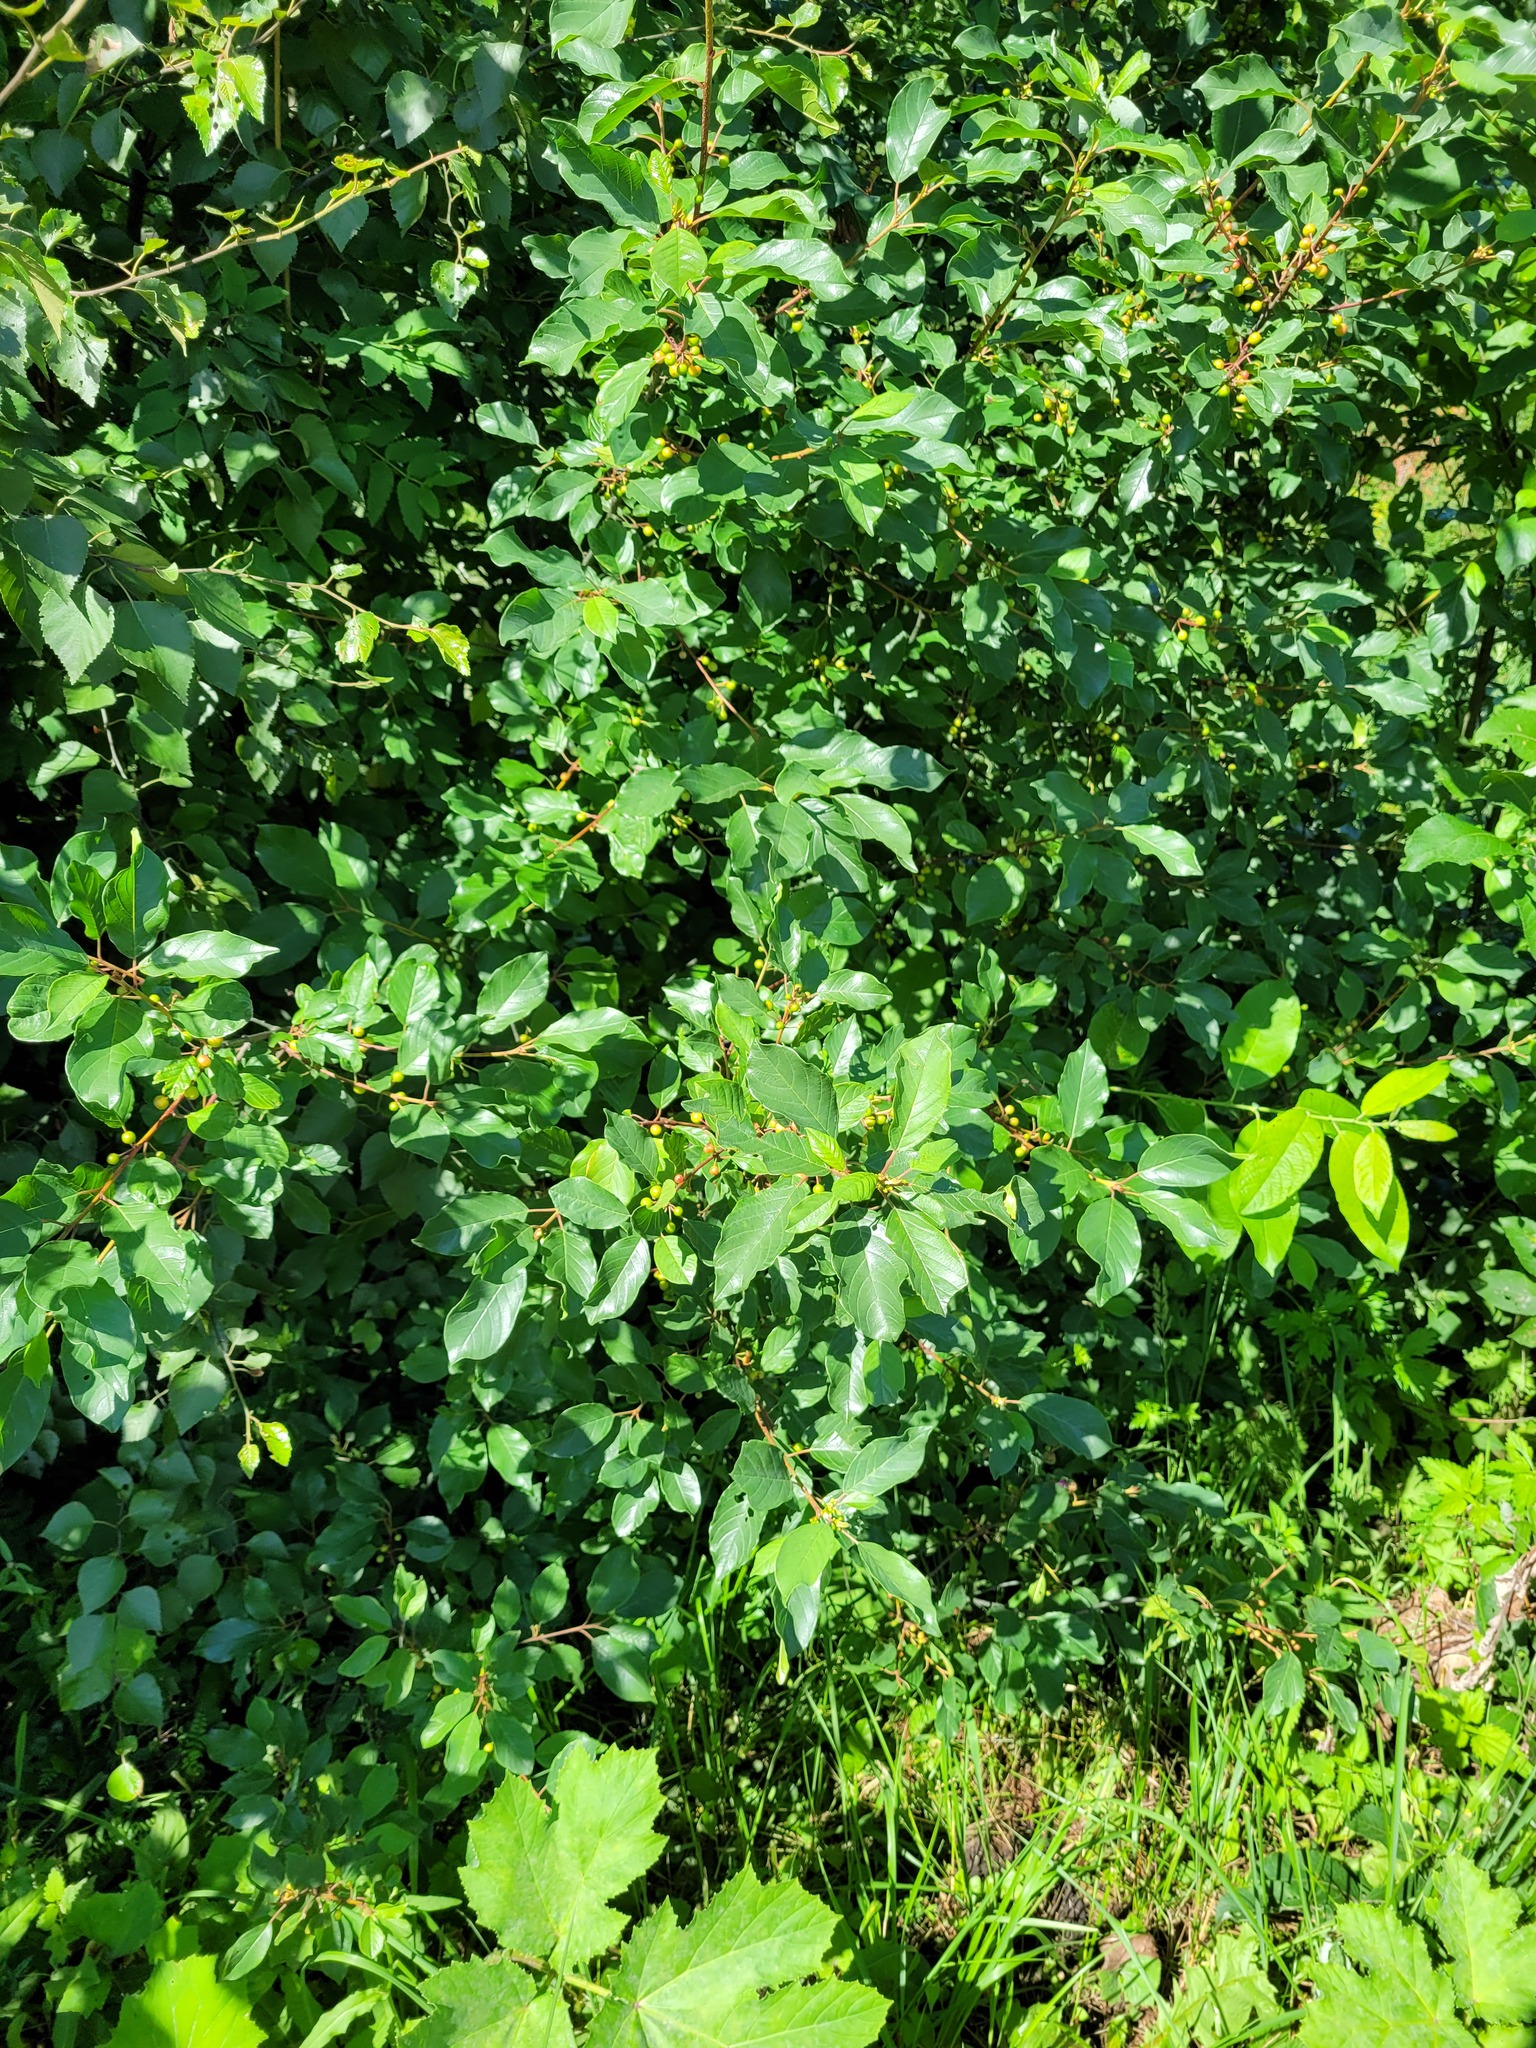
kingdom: Plantae
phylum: Tracheophyta
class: Magnoliopsida
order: Rosales
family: Rhamnaceae
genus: Frangula
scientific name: Frangula alnus
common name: Alder buckthorn
